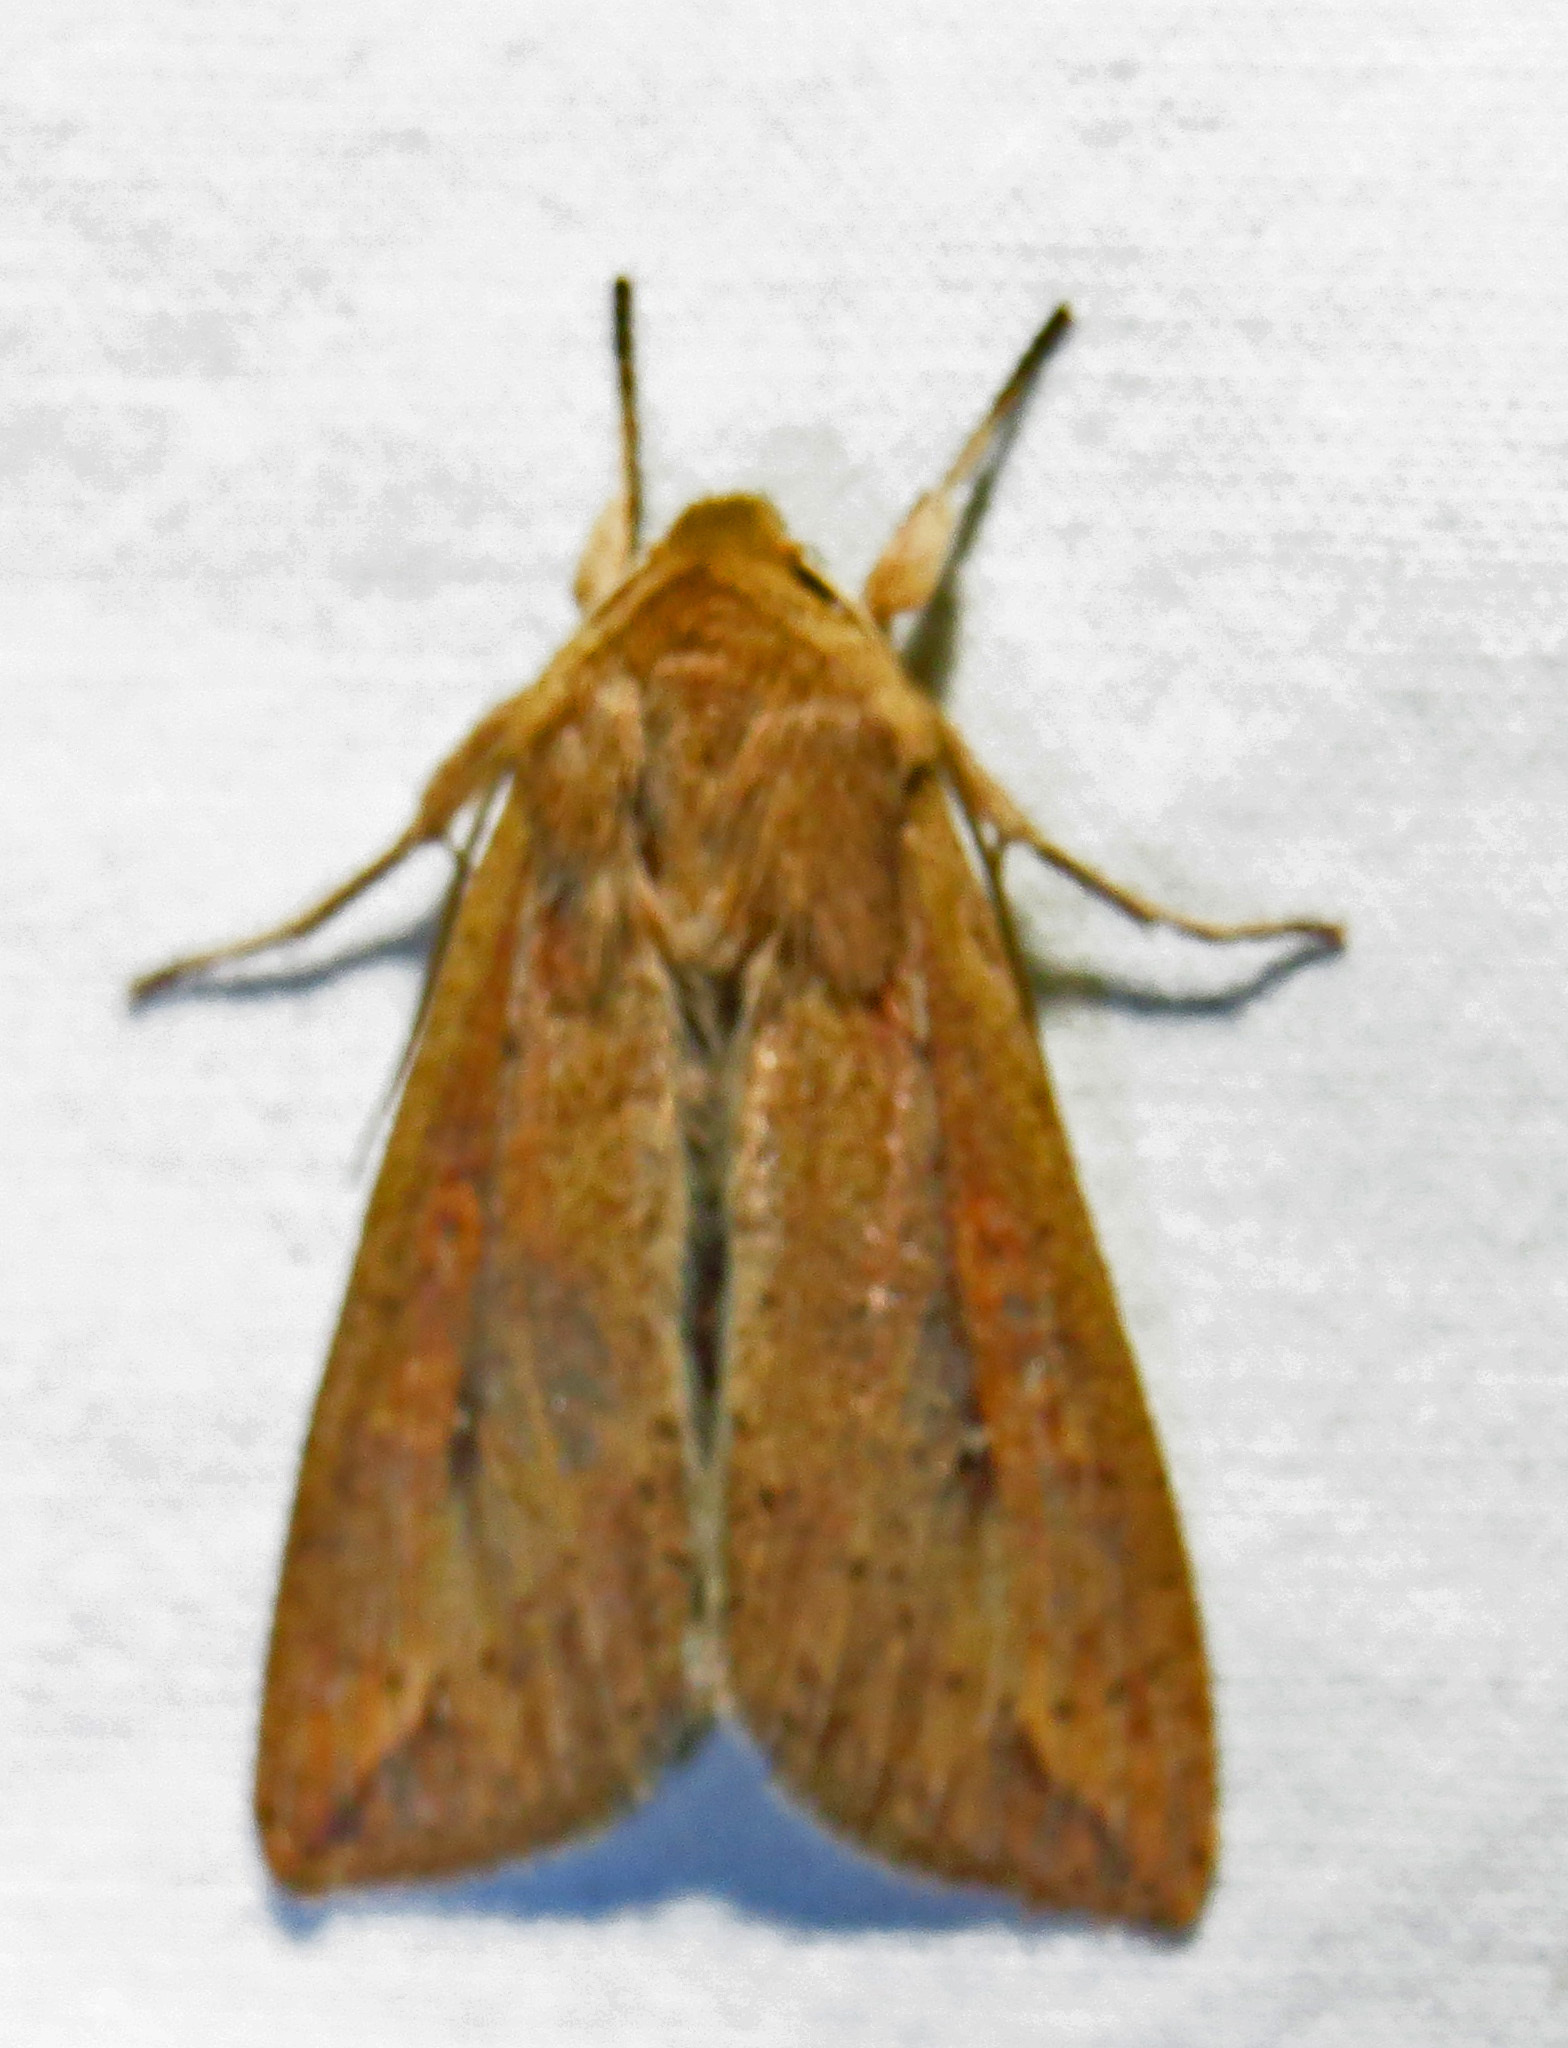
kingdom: Animalia
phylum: Arthropoda
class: Insecta
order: Lepidoptera
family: Noctuidae
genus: Mythimna
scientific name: Mythimna unipuncta
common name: White-speck
